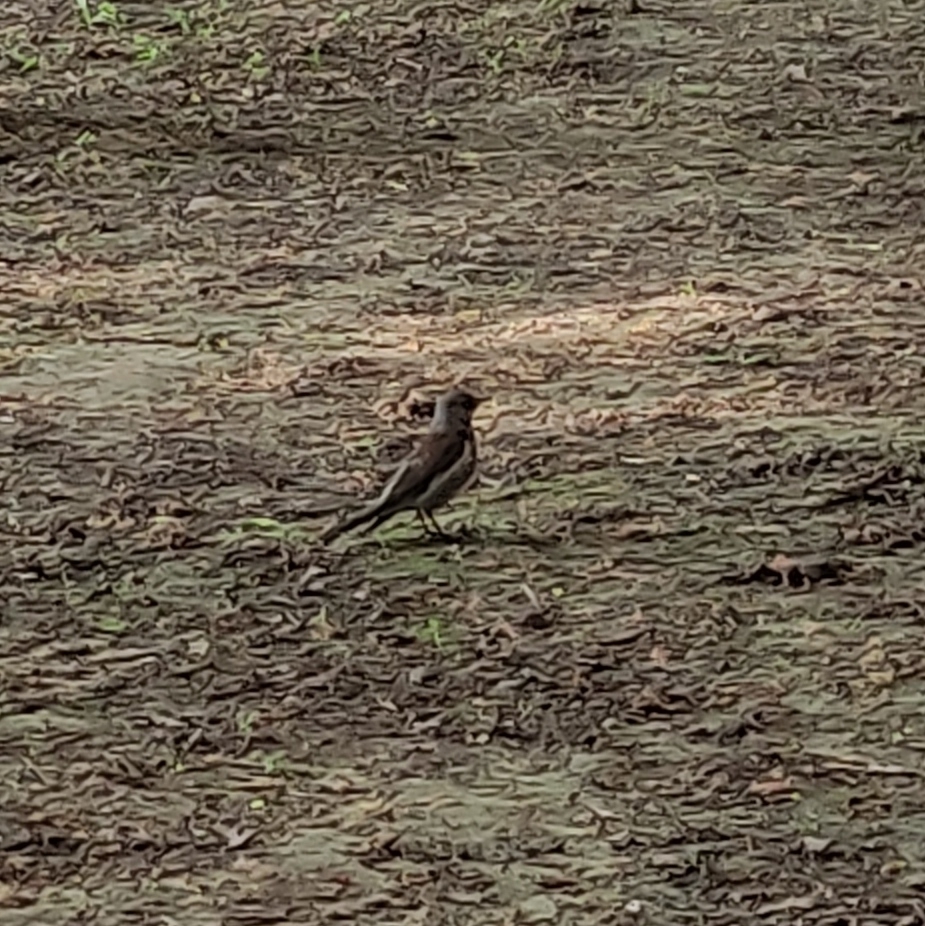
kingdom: Animalia
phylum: Chordata
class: Aves
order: Passeriformes
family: Turdidae
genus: Turdus
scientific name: Turdus pilaris
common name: Fieldfare
